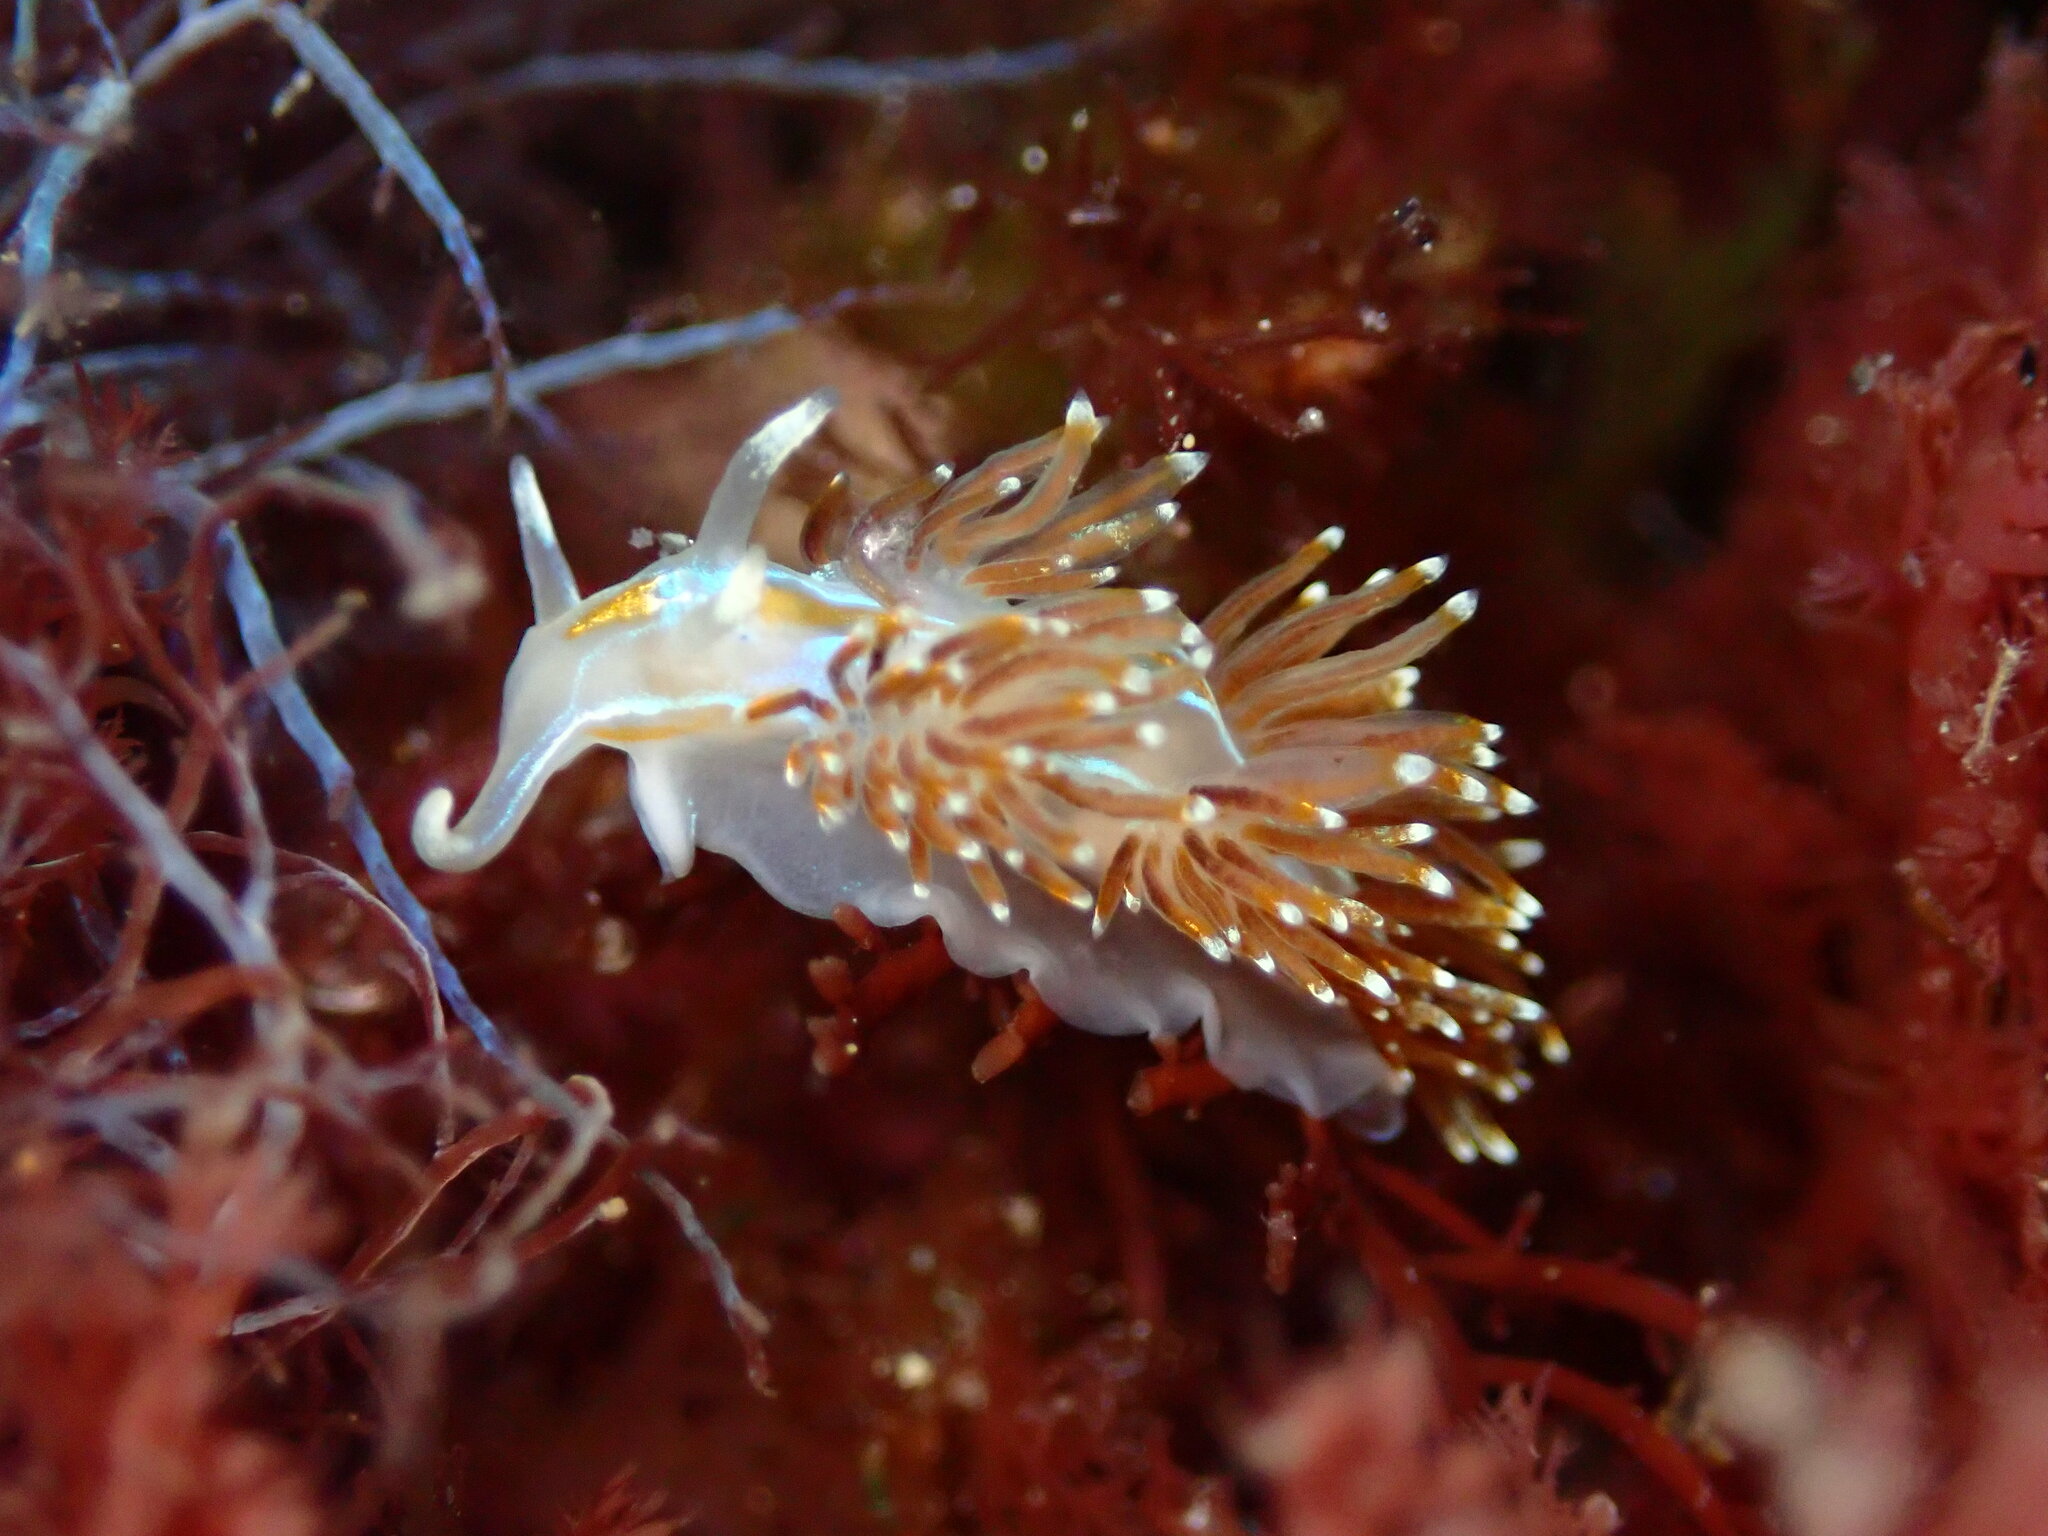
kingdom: Animalia
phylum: Mollusca
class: Gastropoda
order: Nudibranchia
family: Myrrhinidae
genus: Hermissenda
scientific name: Hermissenda opalescens
